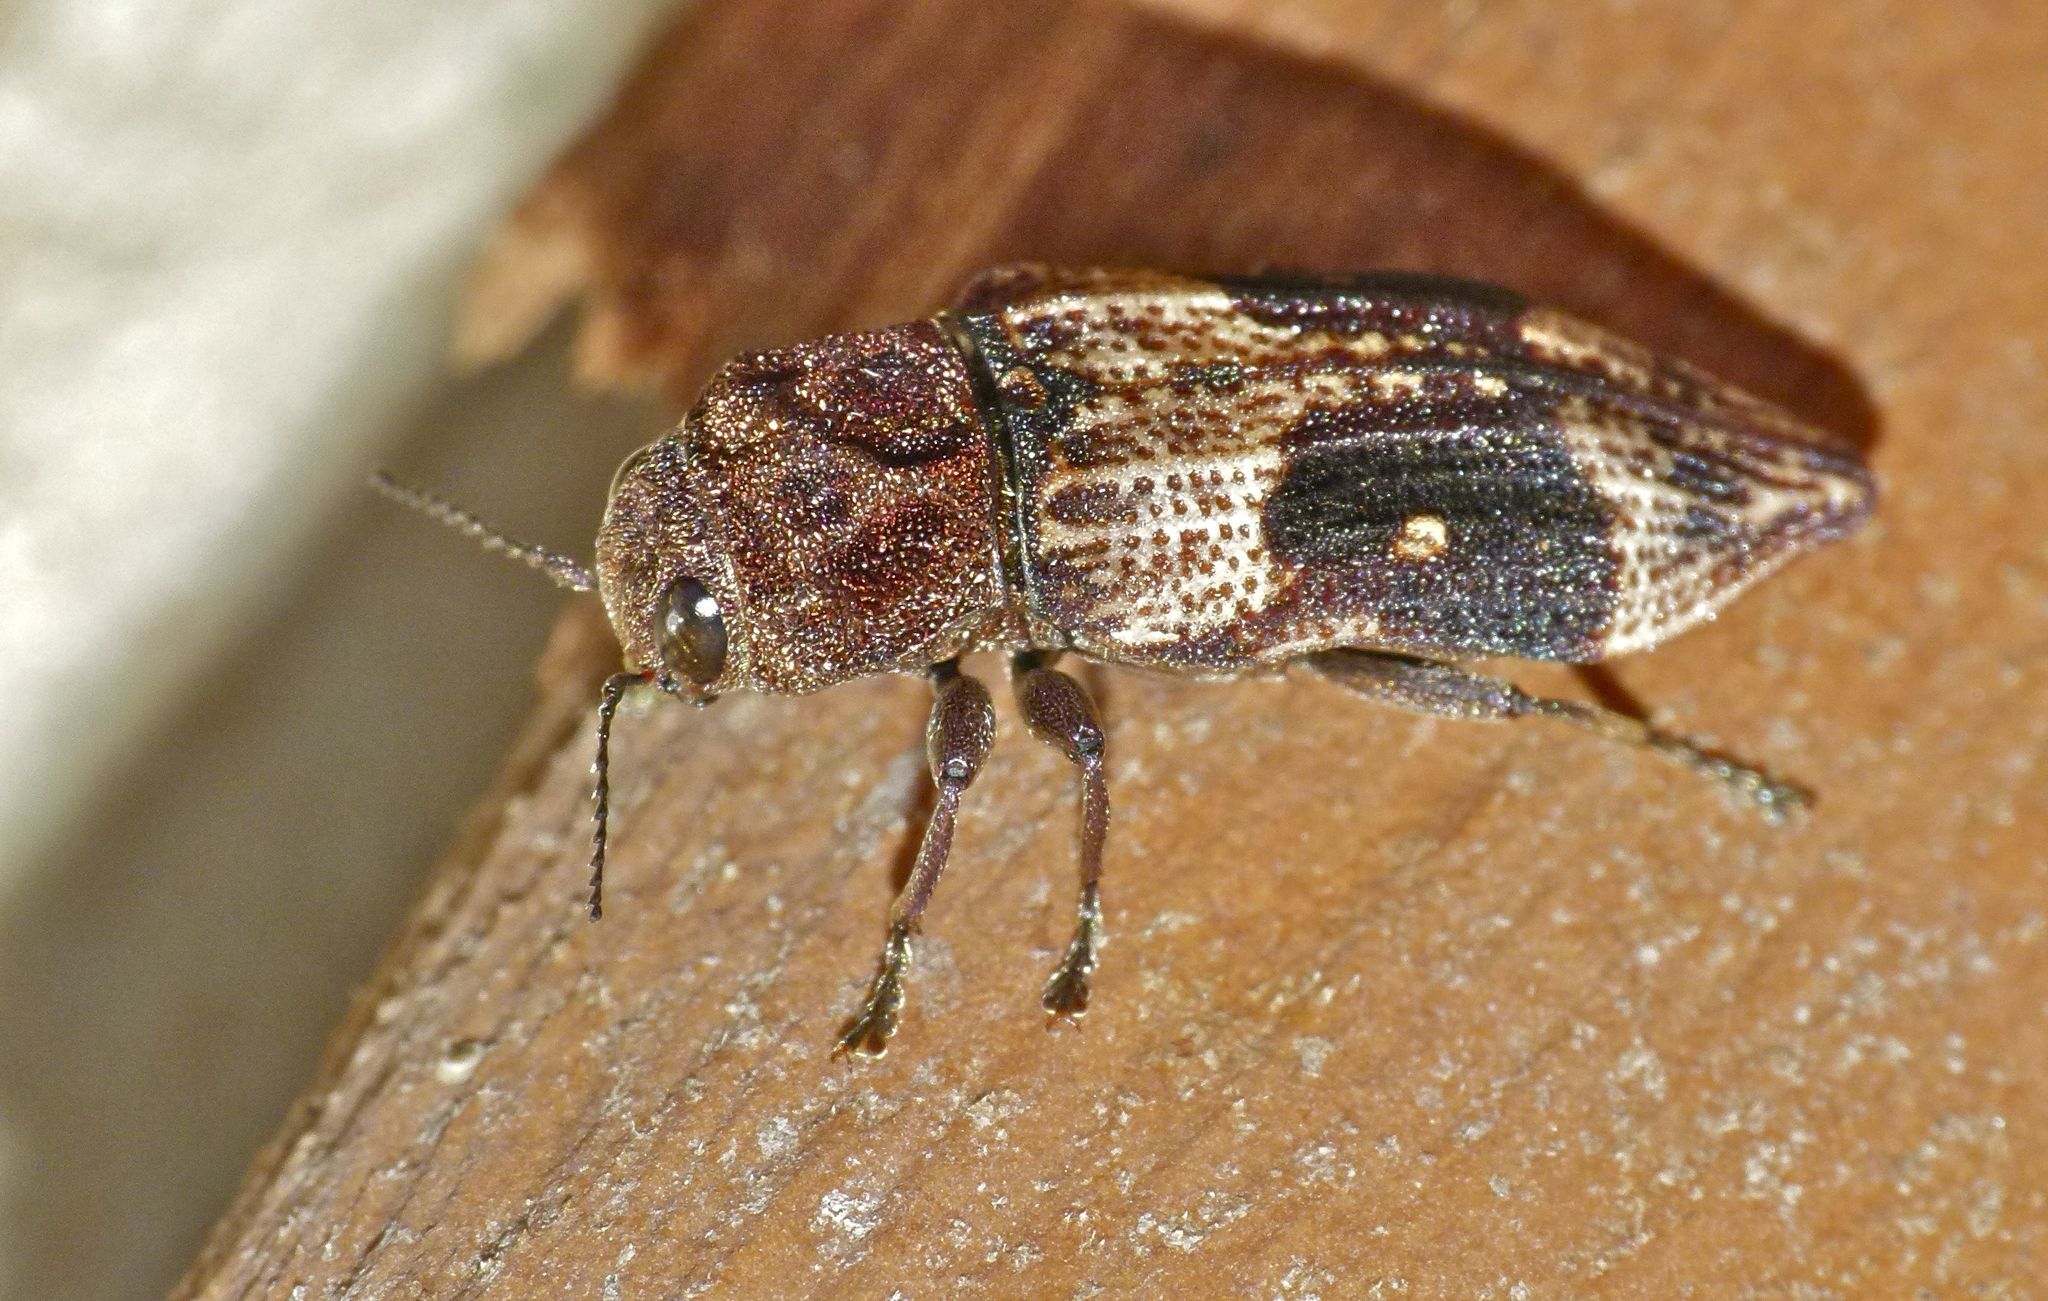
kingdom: Animalia
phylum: Arthropoda
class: Insecta
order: Coleoptera
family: Buprestidae
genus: Nascio
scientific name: Nascio vetusta
